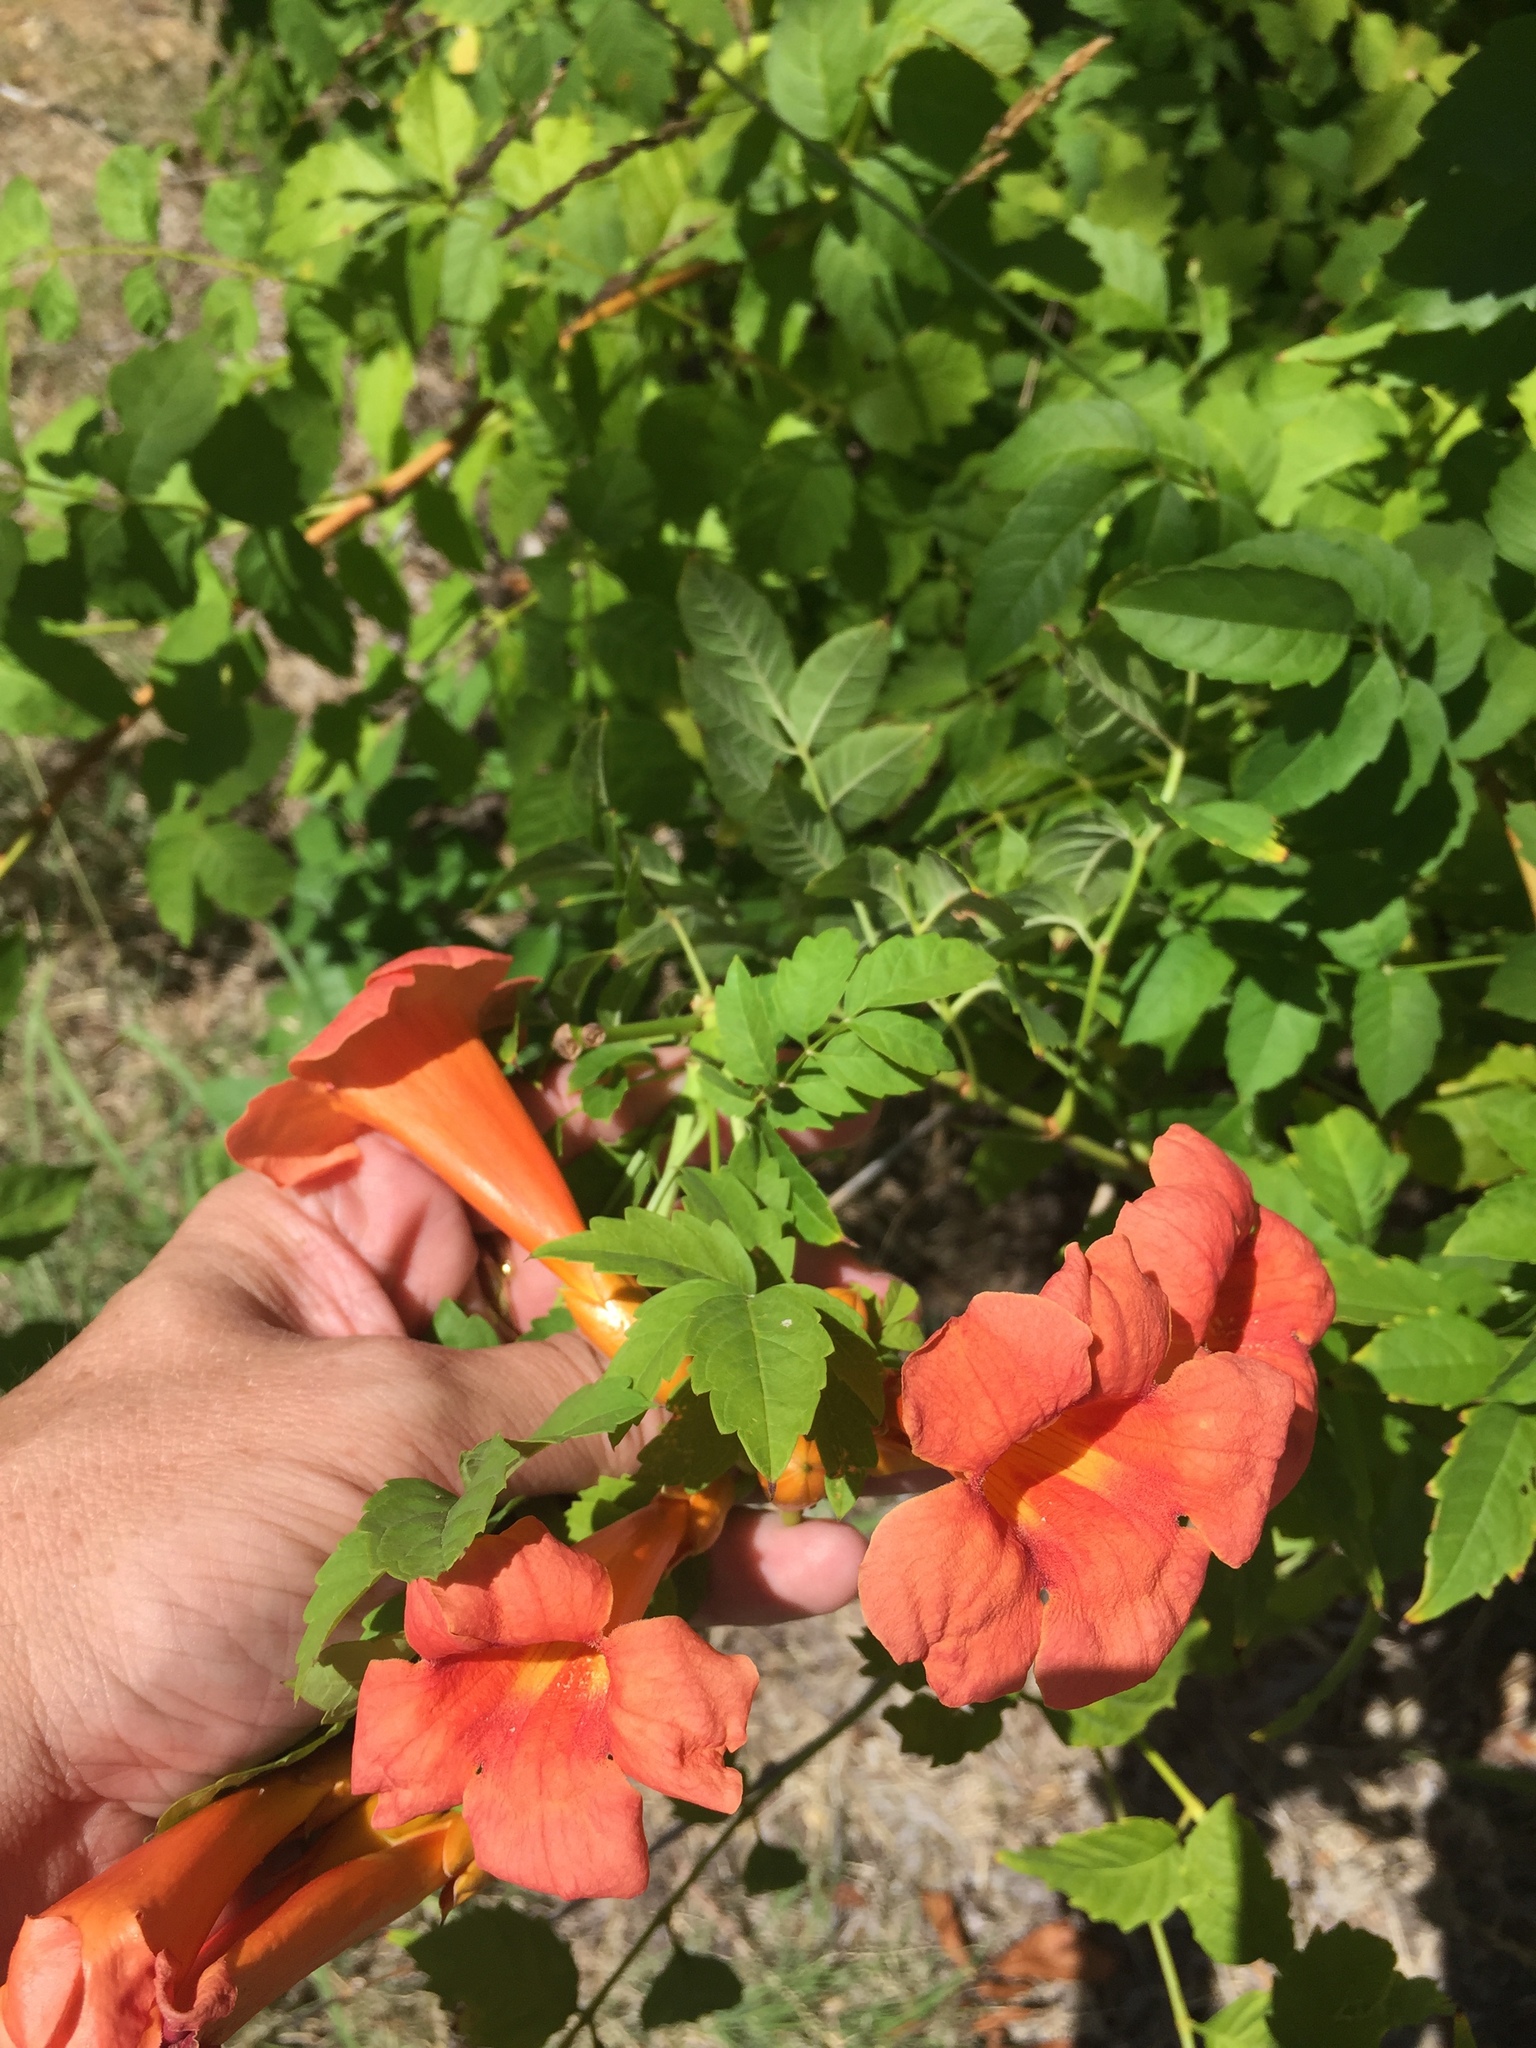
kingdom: Plantae
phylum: Tracheophyta
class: Magnoliopsida
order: Lamiales
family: Bignoniaceae
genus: Campsis
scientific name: Campsis radicans
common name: Trumpet-creeper
